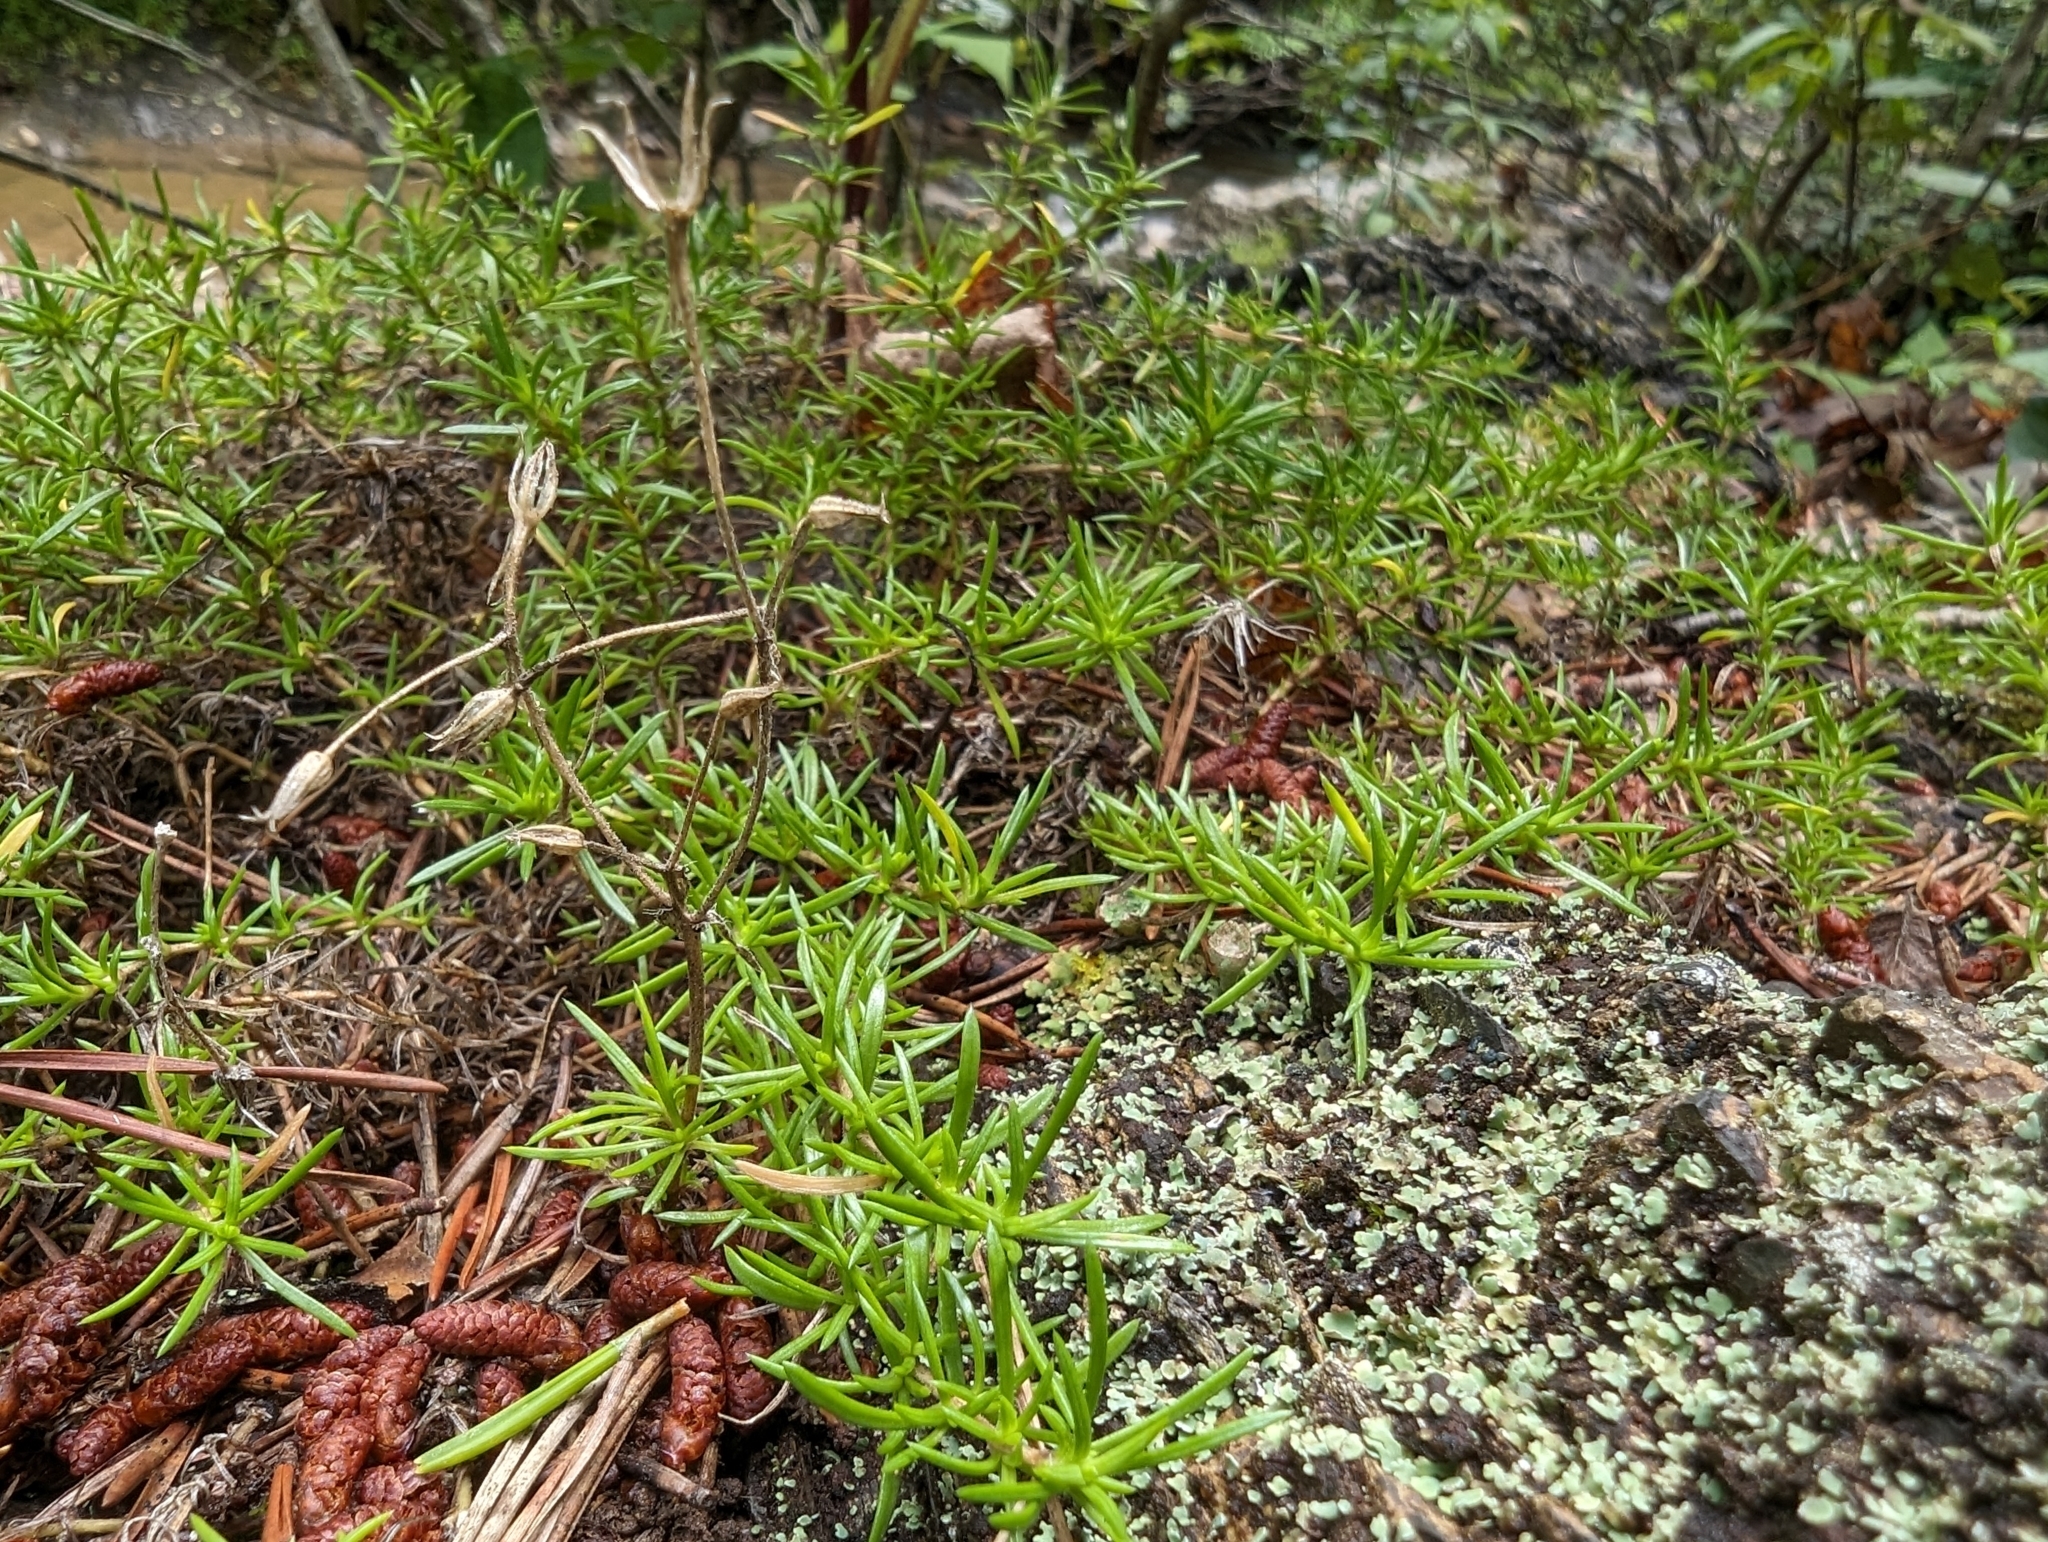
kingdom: Plantae
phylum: Tracheophyta
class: Magnoliopsida
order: Ericales
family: Polemoniaceae
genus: Phlox
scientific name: Phlox subulata
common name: Moss phlox
